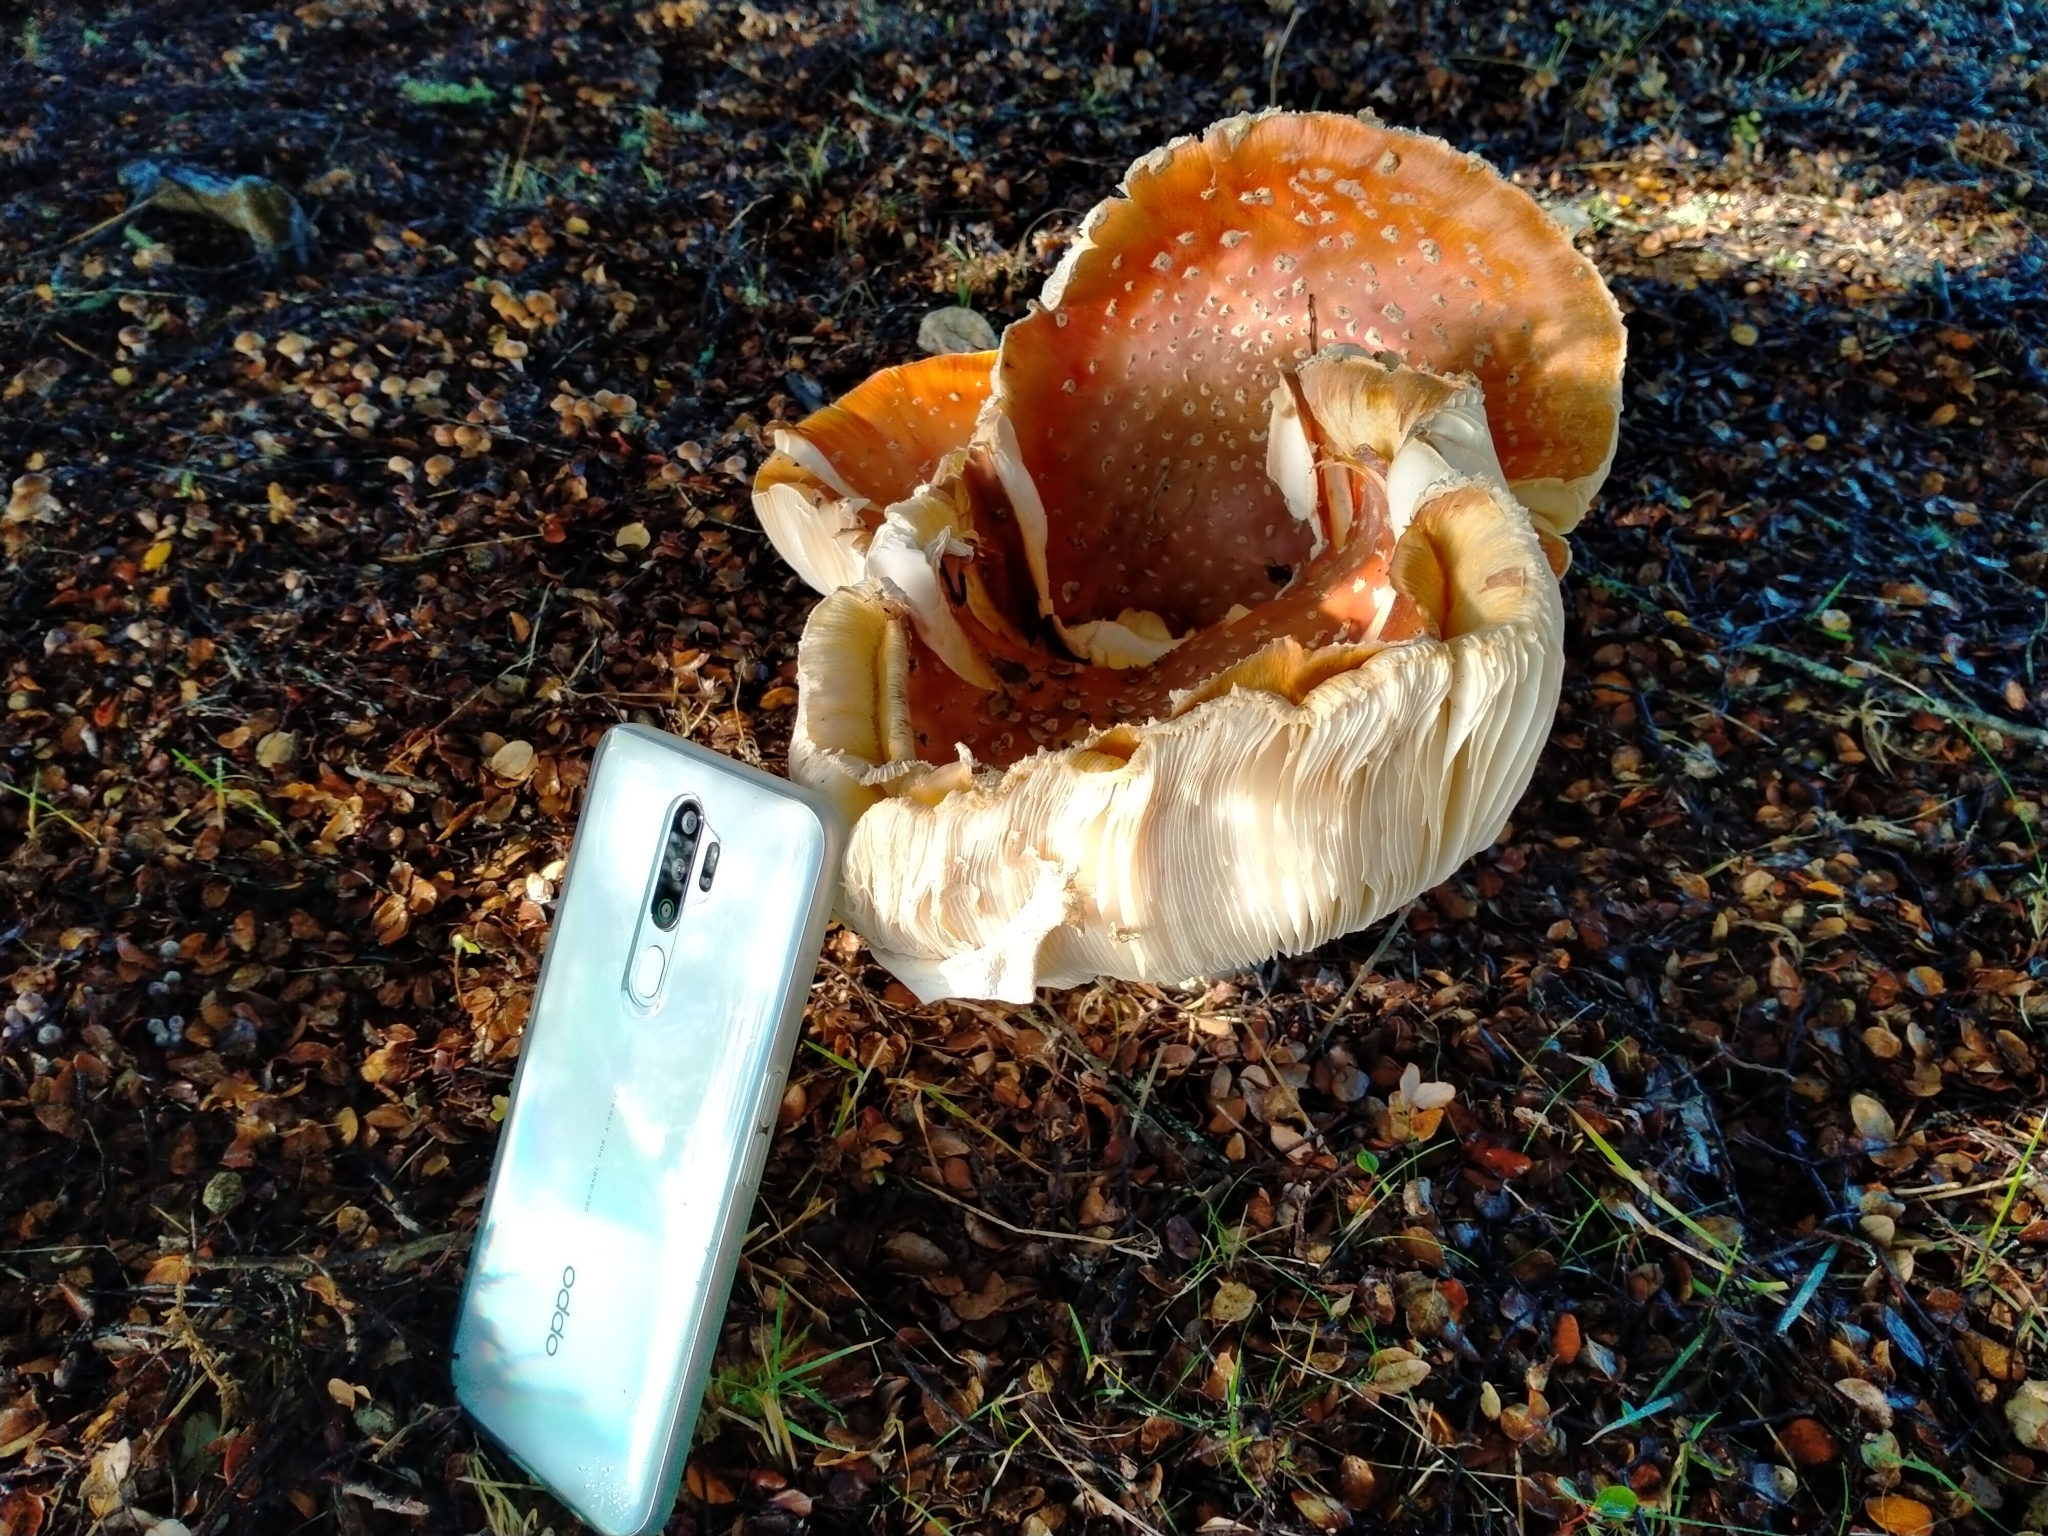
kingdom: Fungi
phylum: Basidiomycota
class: Agaricomycetes
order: Agaricales
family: Amanitaceae
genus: Amanita
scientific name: Amanita muscaria
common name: Fly agaric
